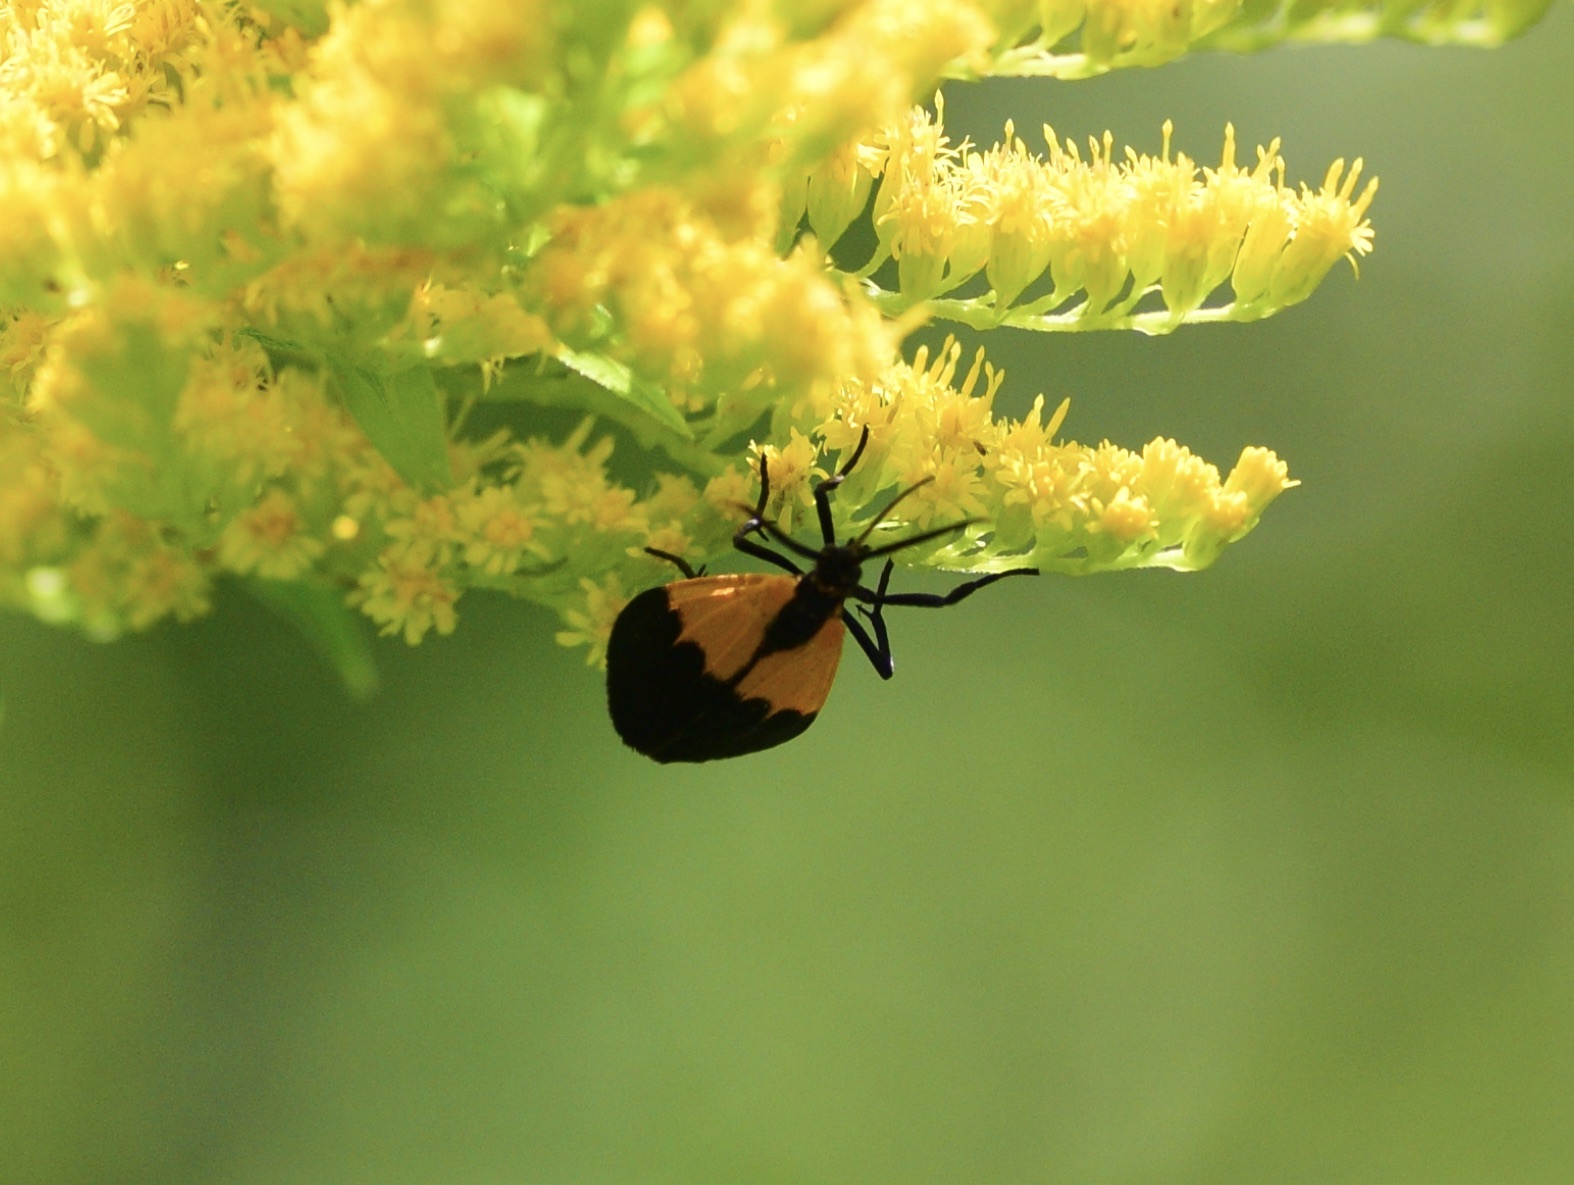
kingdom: Animalia
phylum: Arthropoda
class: Insecta
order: Lepidoptera
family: Erebidae
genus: Lycomorpha
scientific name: Lycomorpha pholus
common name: Black-and-yellow lichen moth
